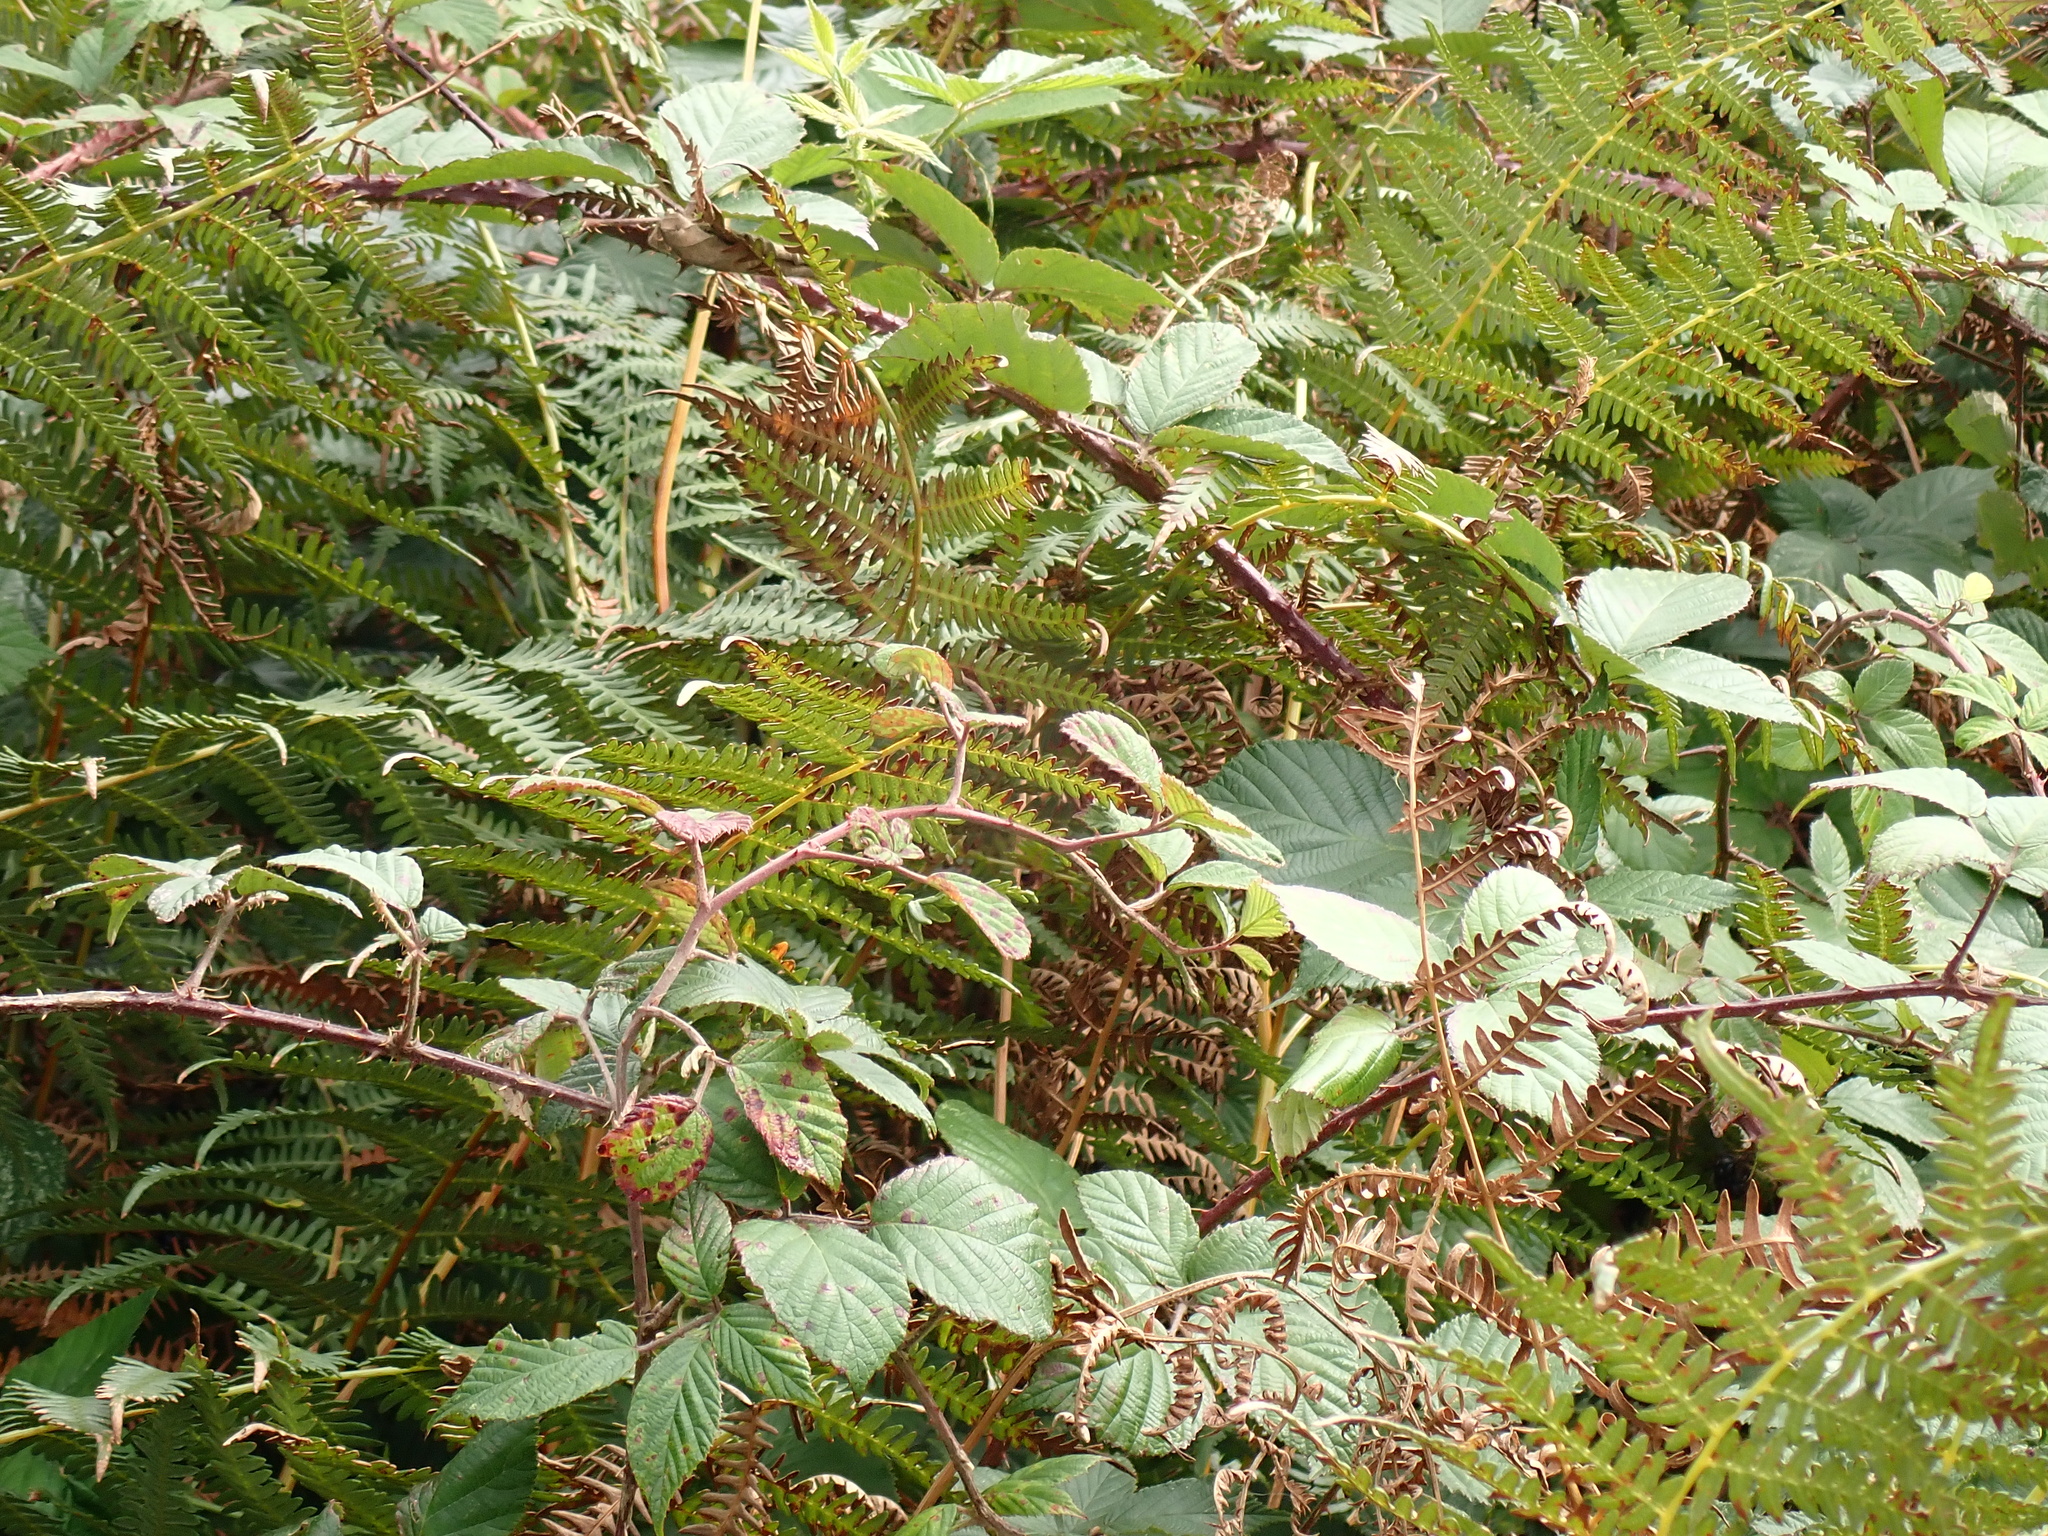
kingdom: Plantae
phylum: Tracheophyta
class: Polypodiopsida
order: Polypodiales
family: Dennstaedtiaceae
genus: Pteridium
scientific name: Pteridium aquilinum
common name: Bracken
